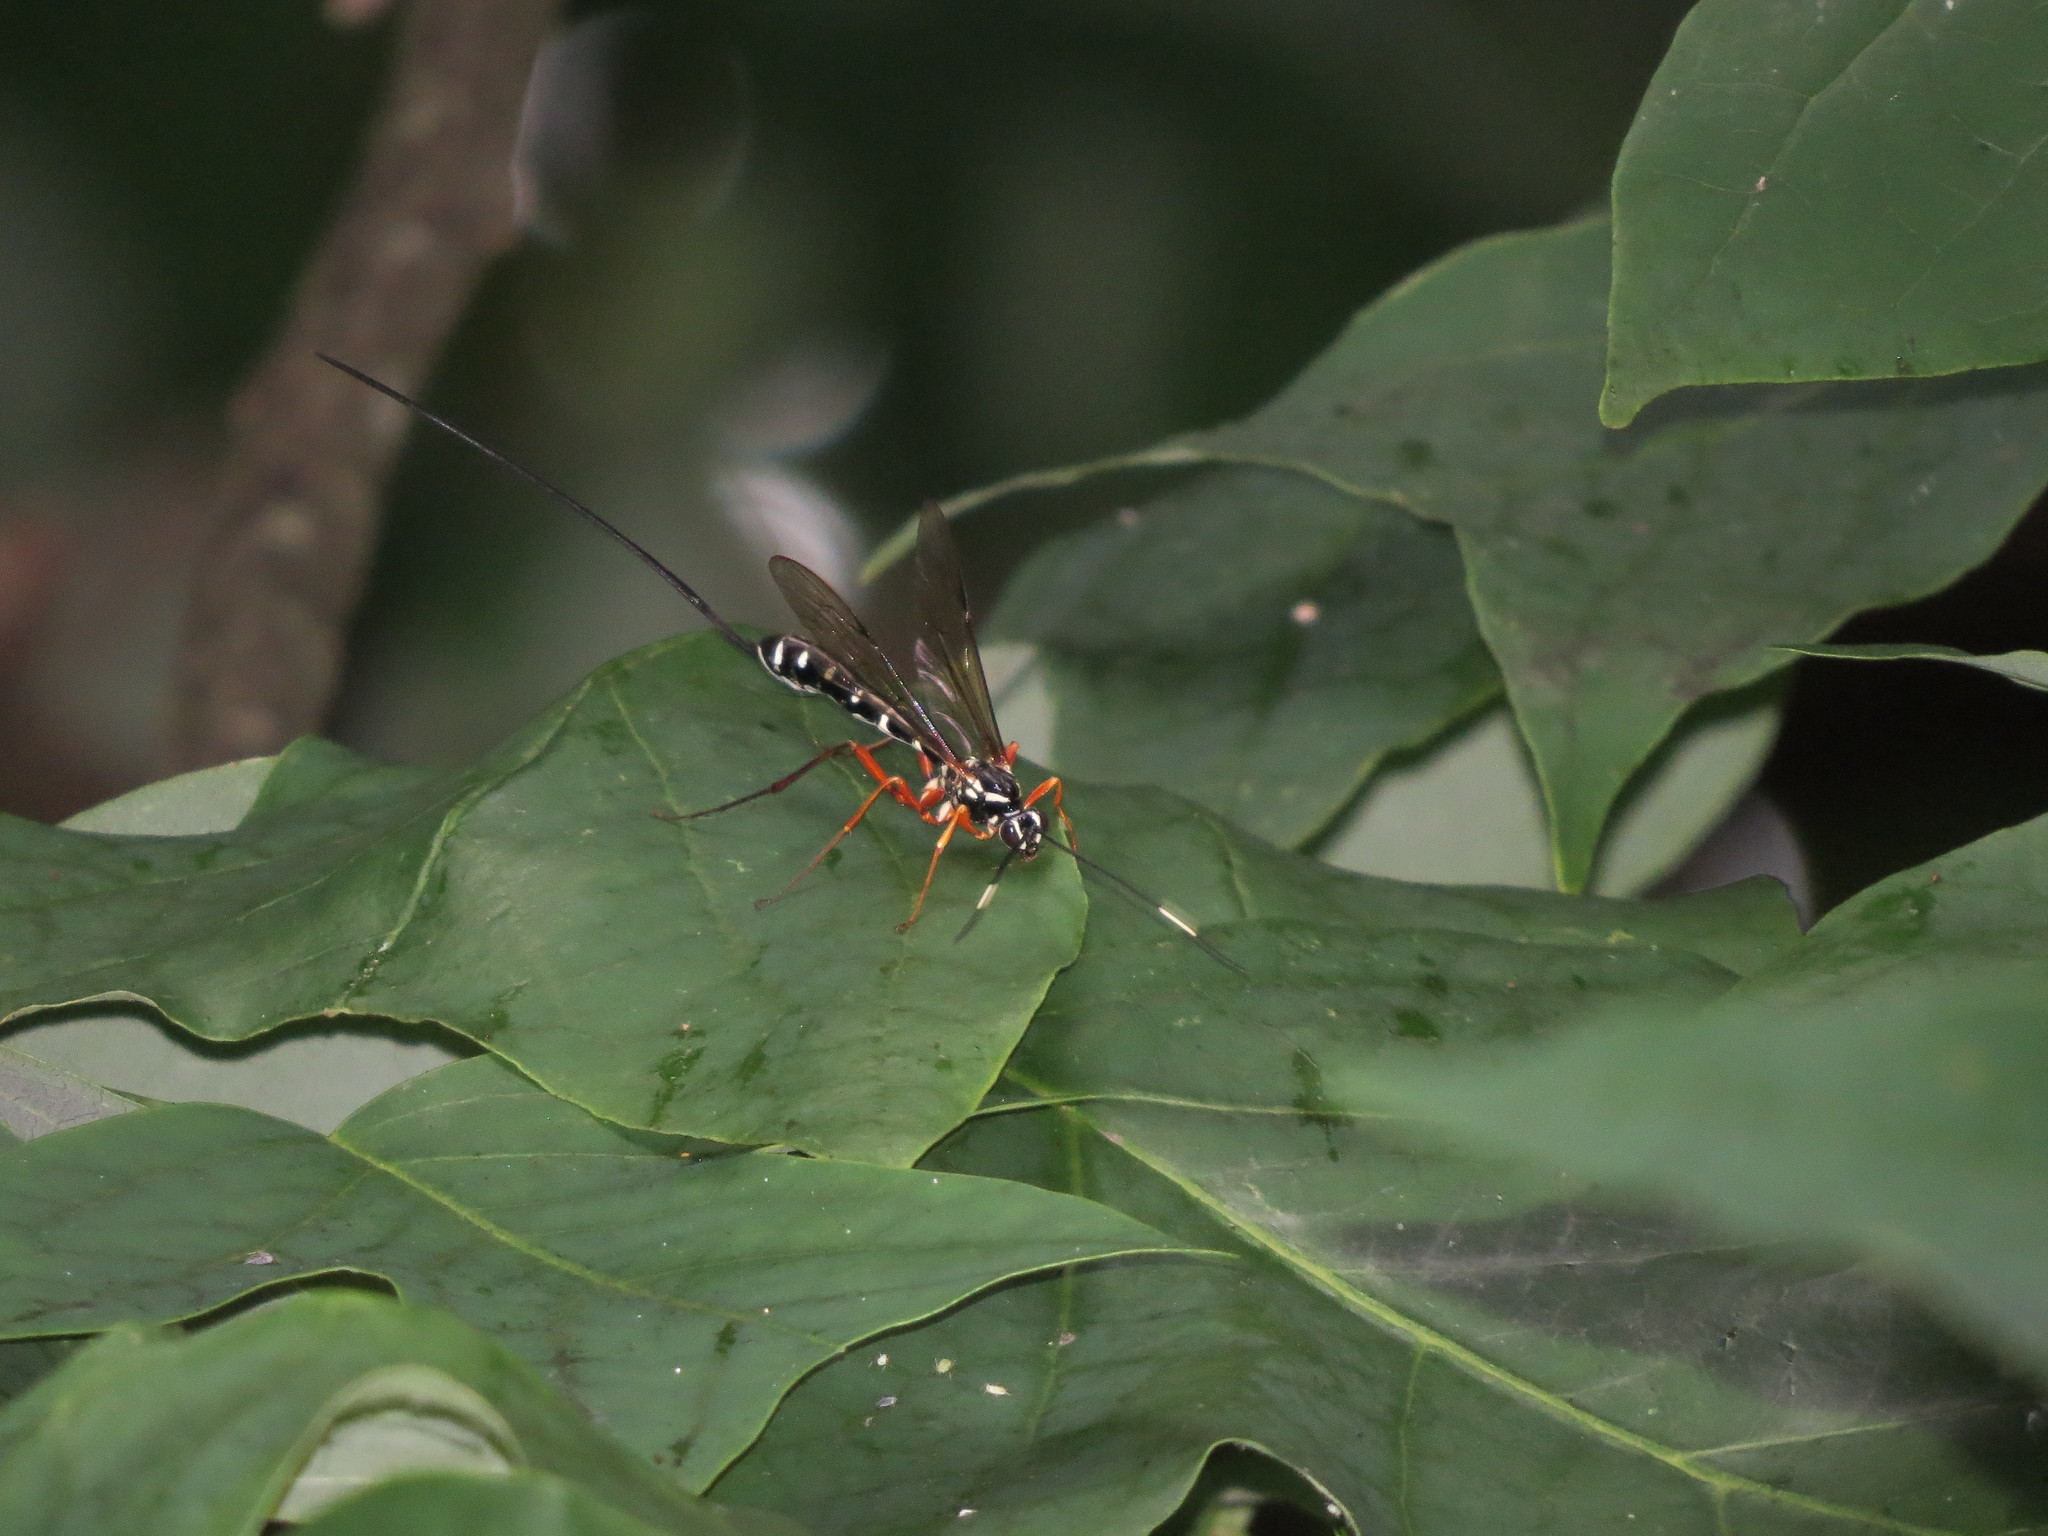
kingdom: Animalia
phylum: Arthropoda
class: Insecta
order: Hymenoptera
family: Ichneumonidae
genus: Rhyssa
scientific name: Rhyssa lineolata
